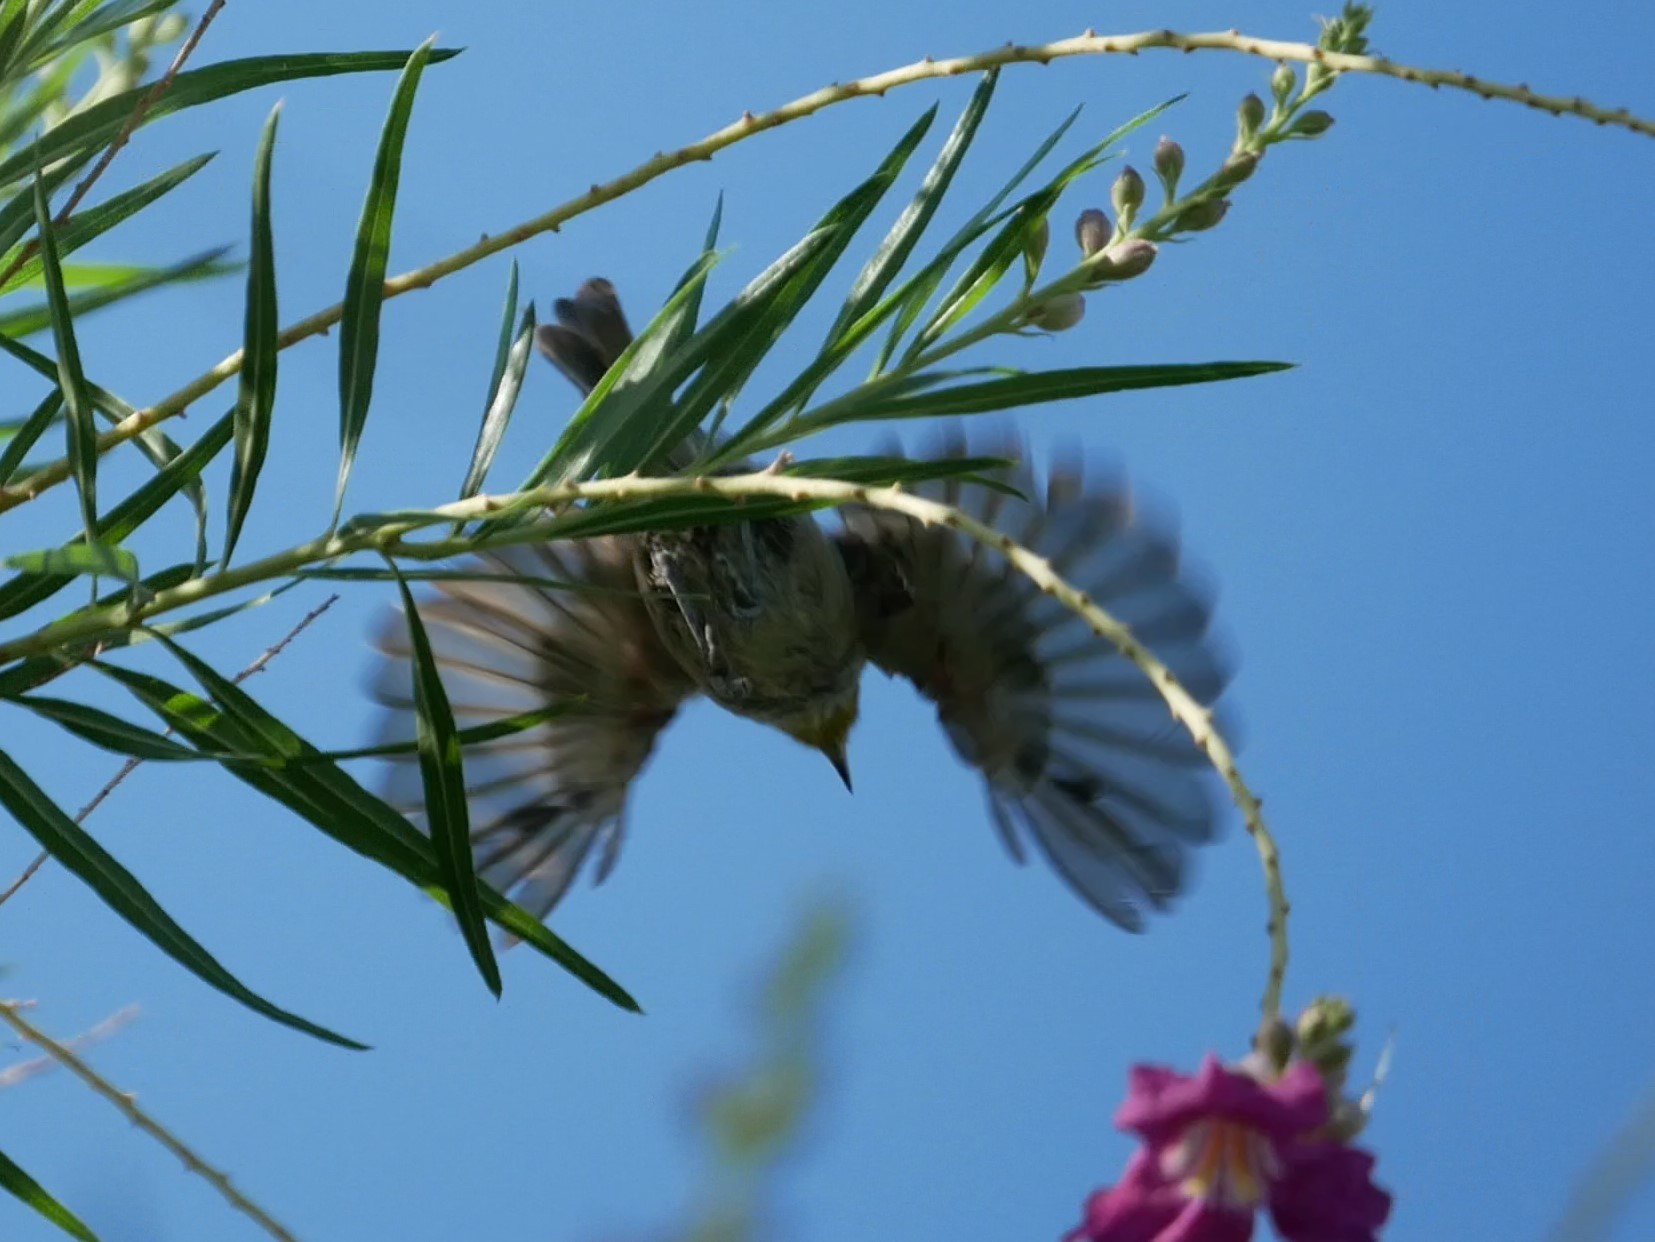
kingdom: Animalia
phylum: Chordata
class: Aves
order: Passeriformes
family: Remizidae
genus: Auriparus
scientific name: Auriparus flaviceps
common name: Verdin
